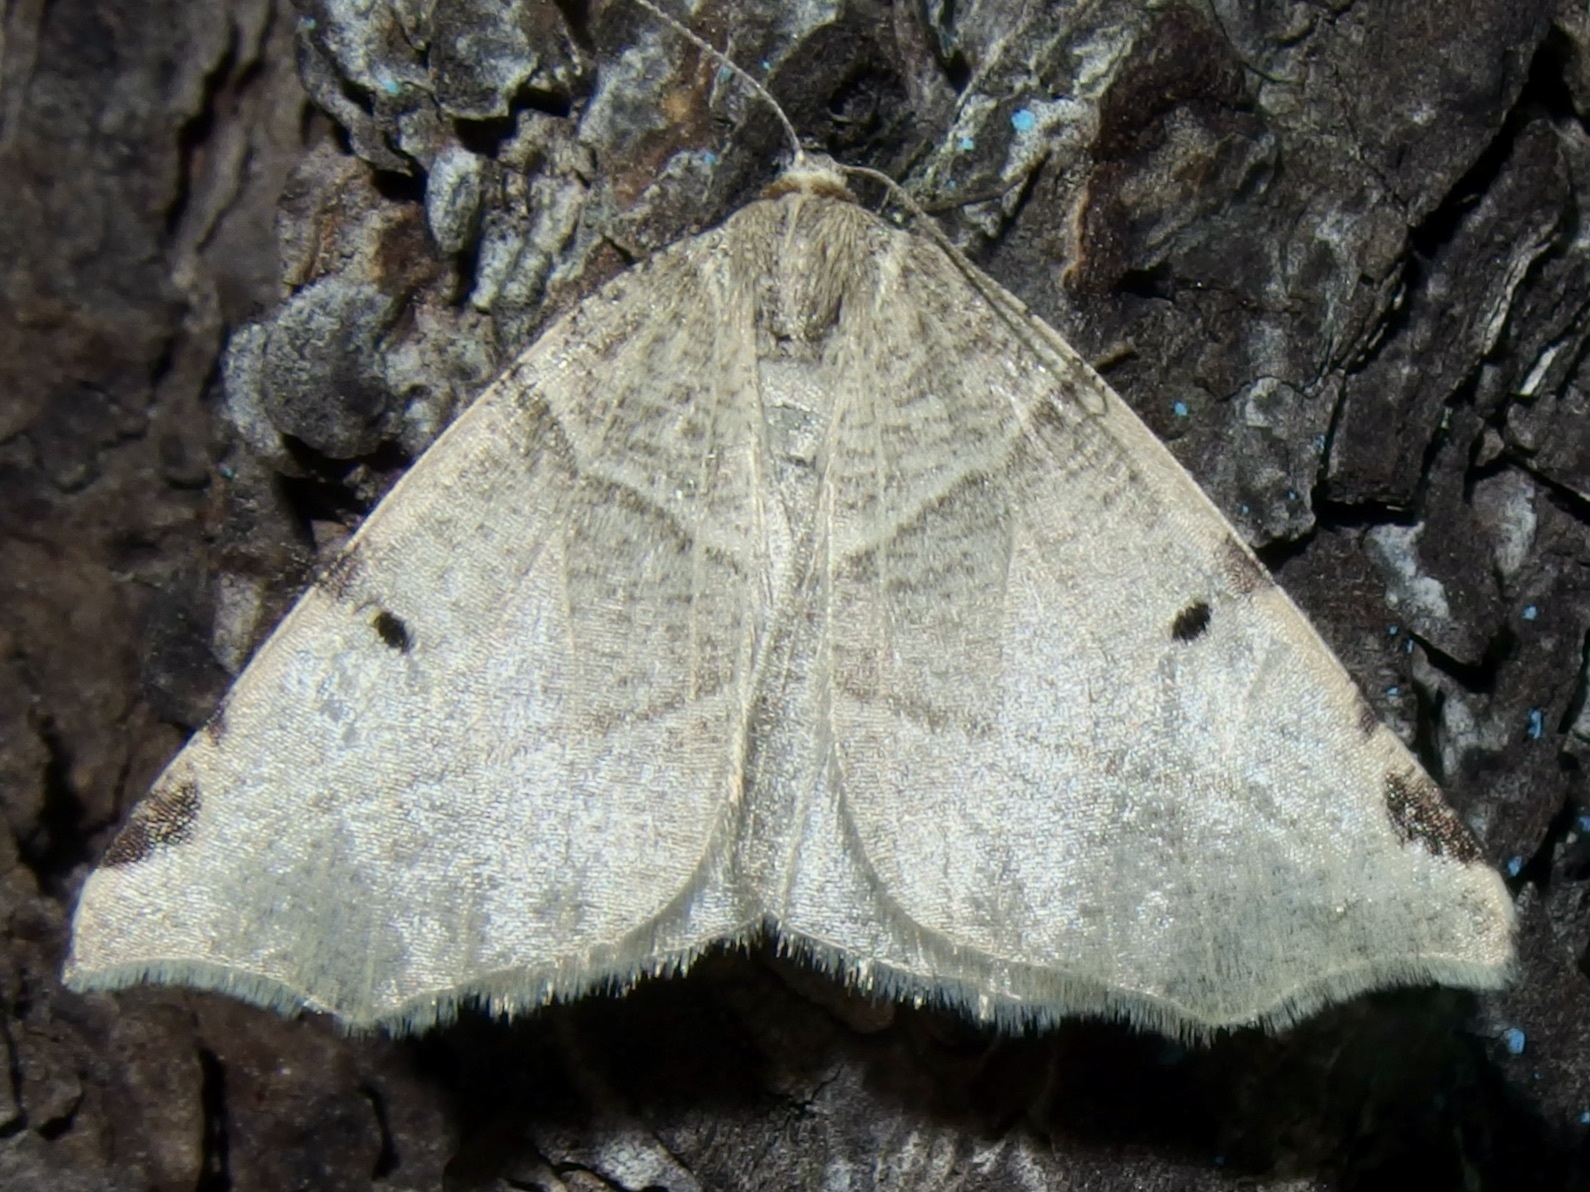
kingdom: Animalia
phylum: Arthropoda
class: Insecta
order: Lepidoptera
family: Geometridae
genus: Neoterpes
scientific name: Neoterpes graefiaria
